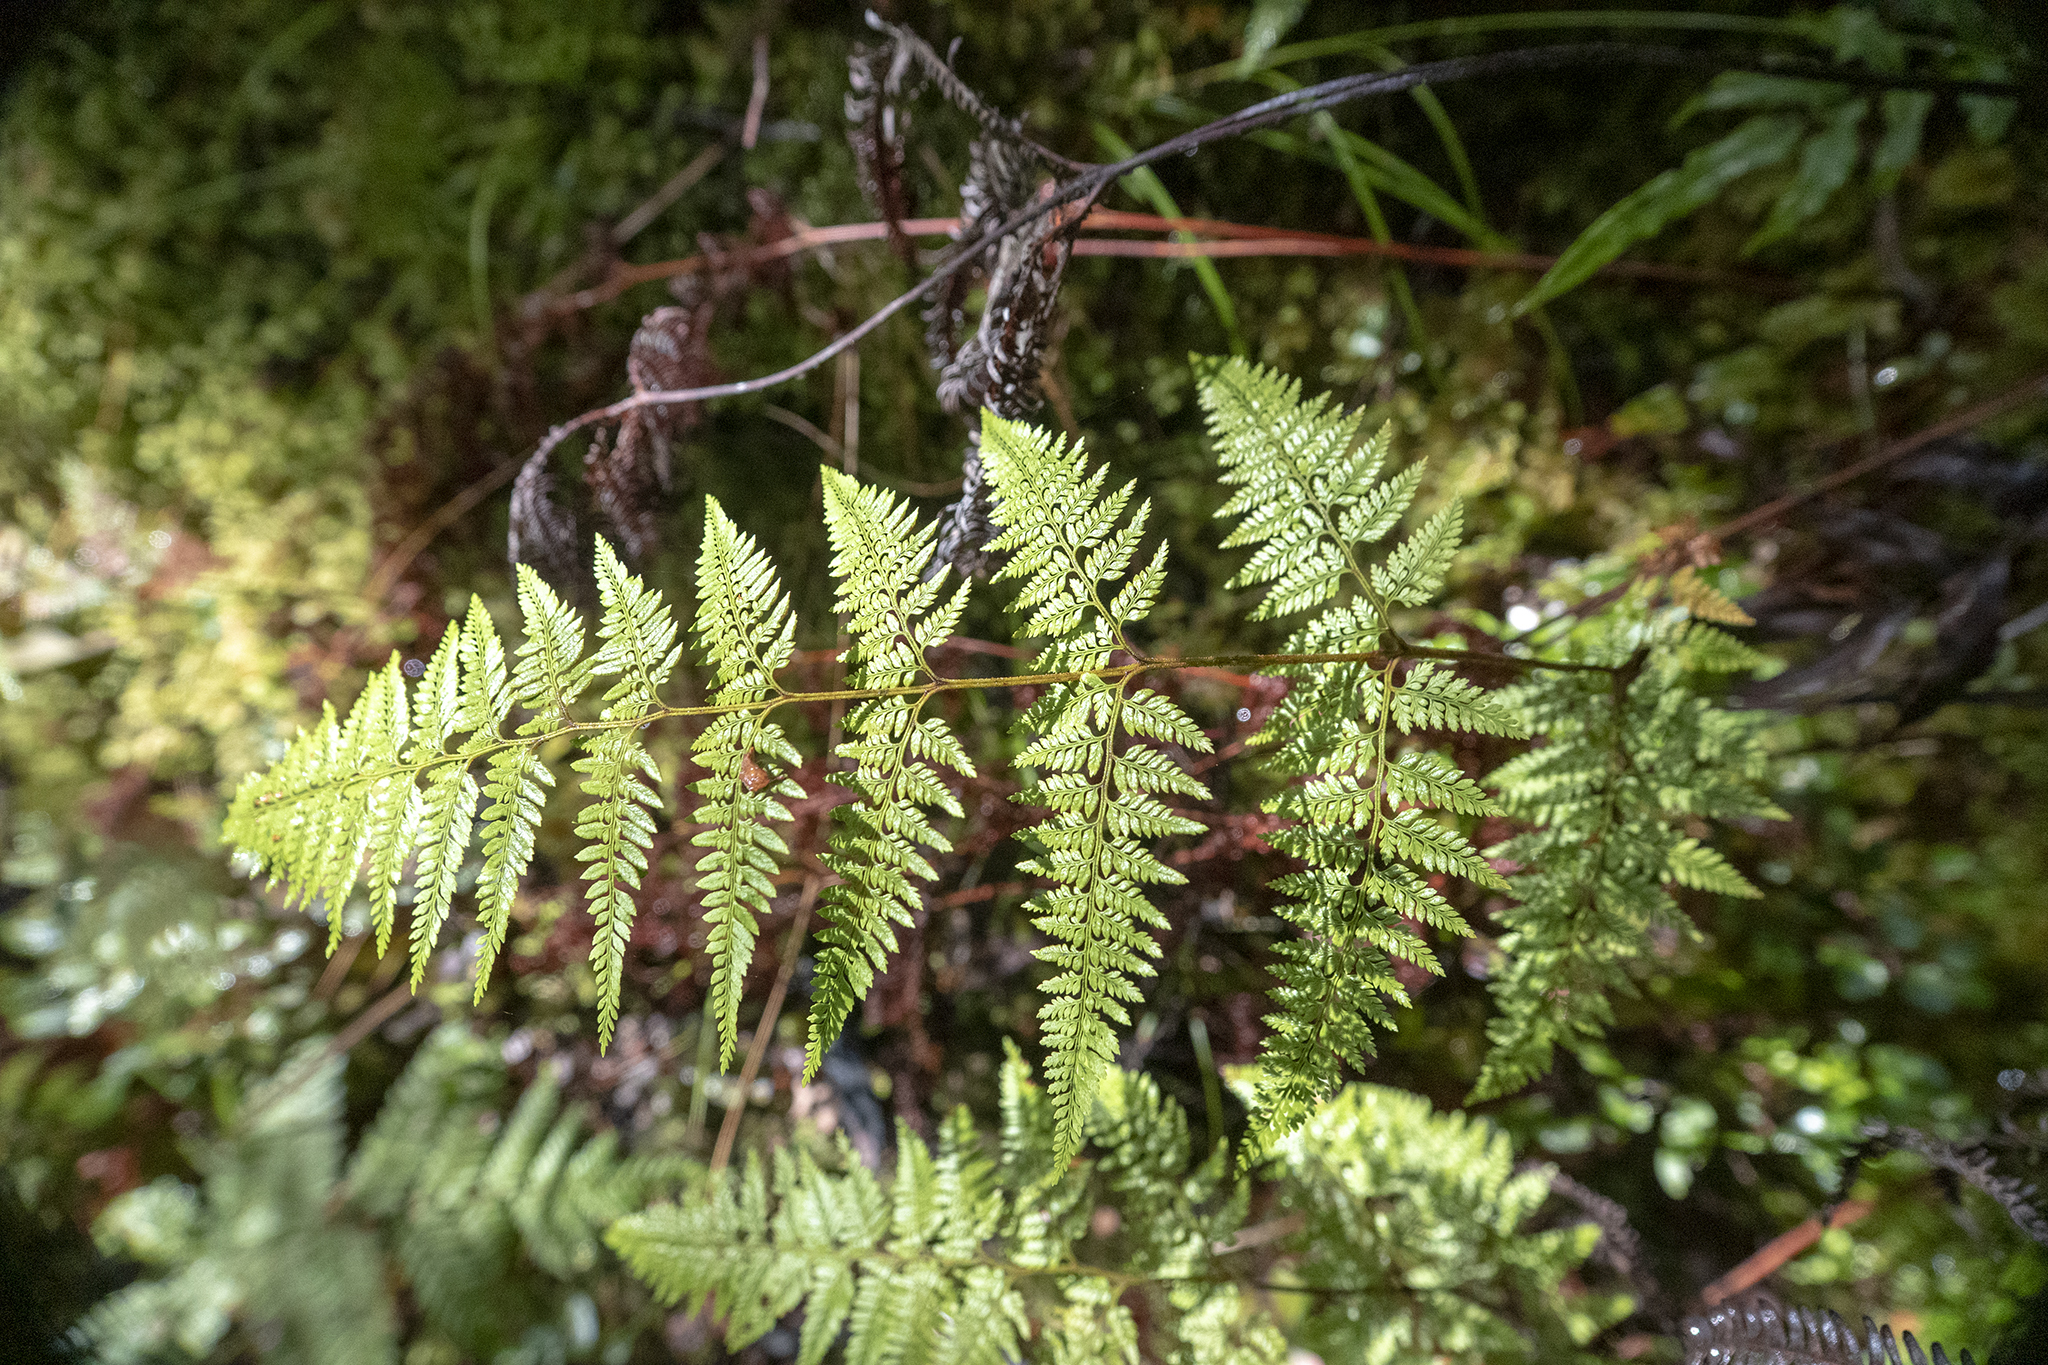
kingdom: Plantae
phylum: Tracheophyta
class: Polypodiopsida
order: Polypodiales
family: Dennstaedtiaceae
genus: Paesia
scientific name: Paesia scaberula
